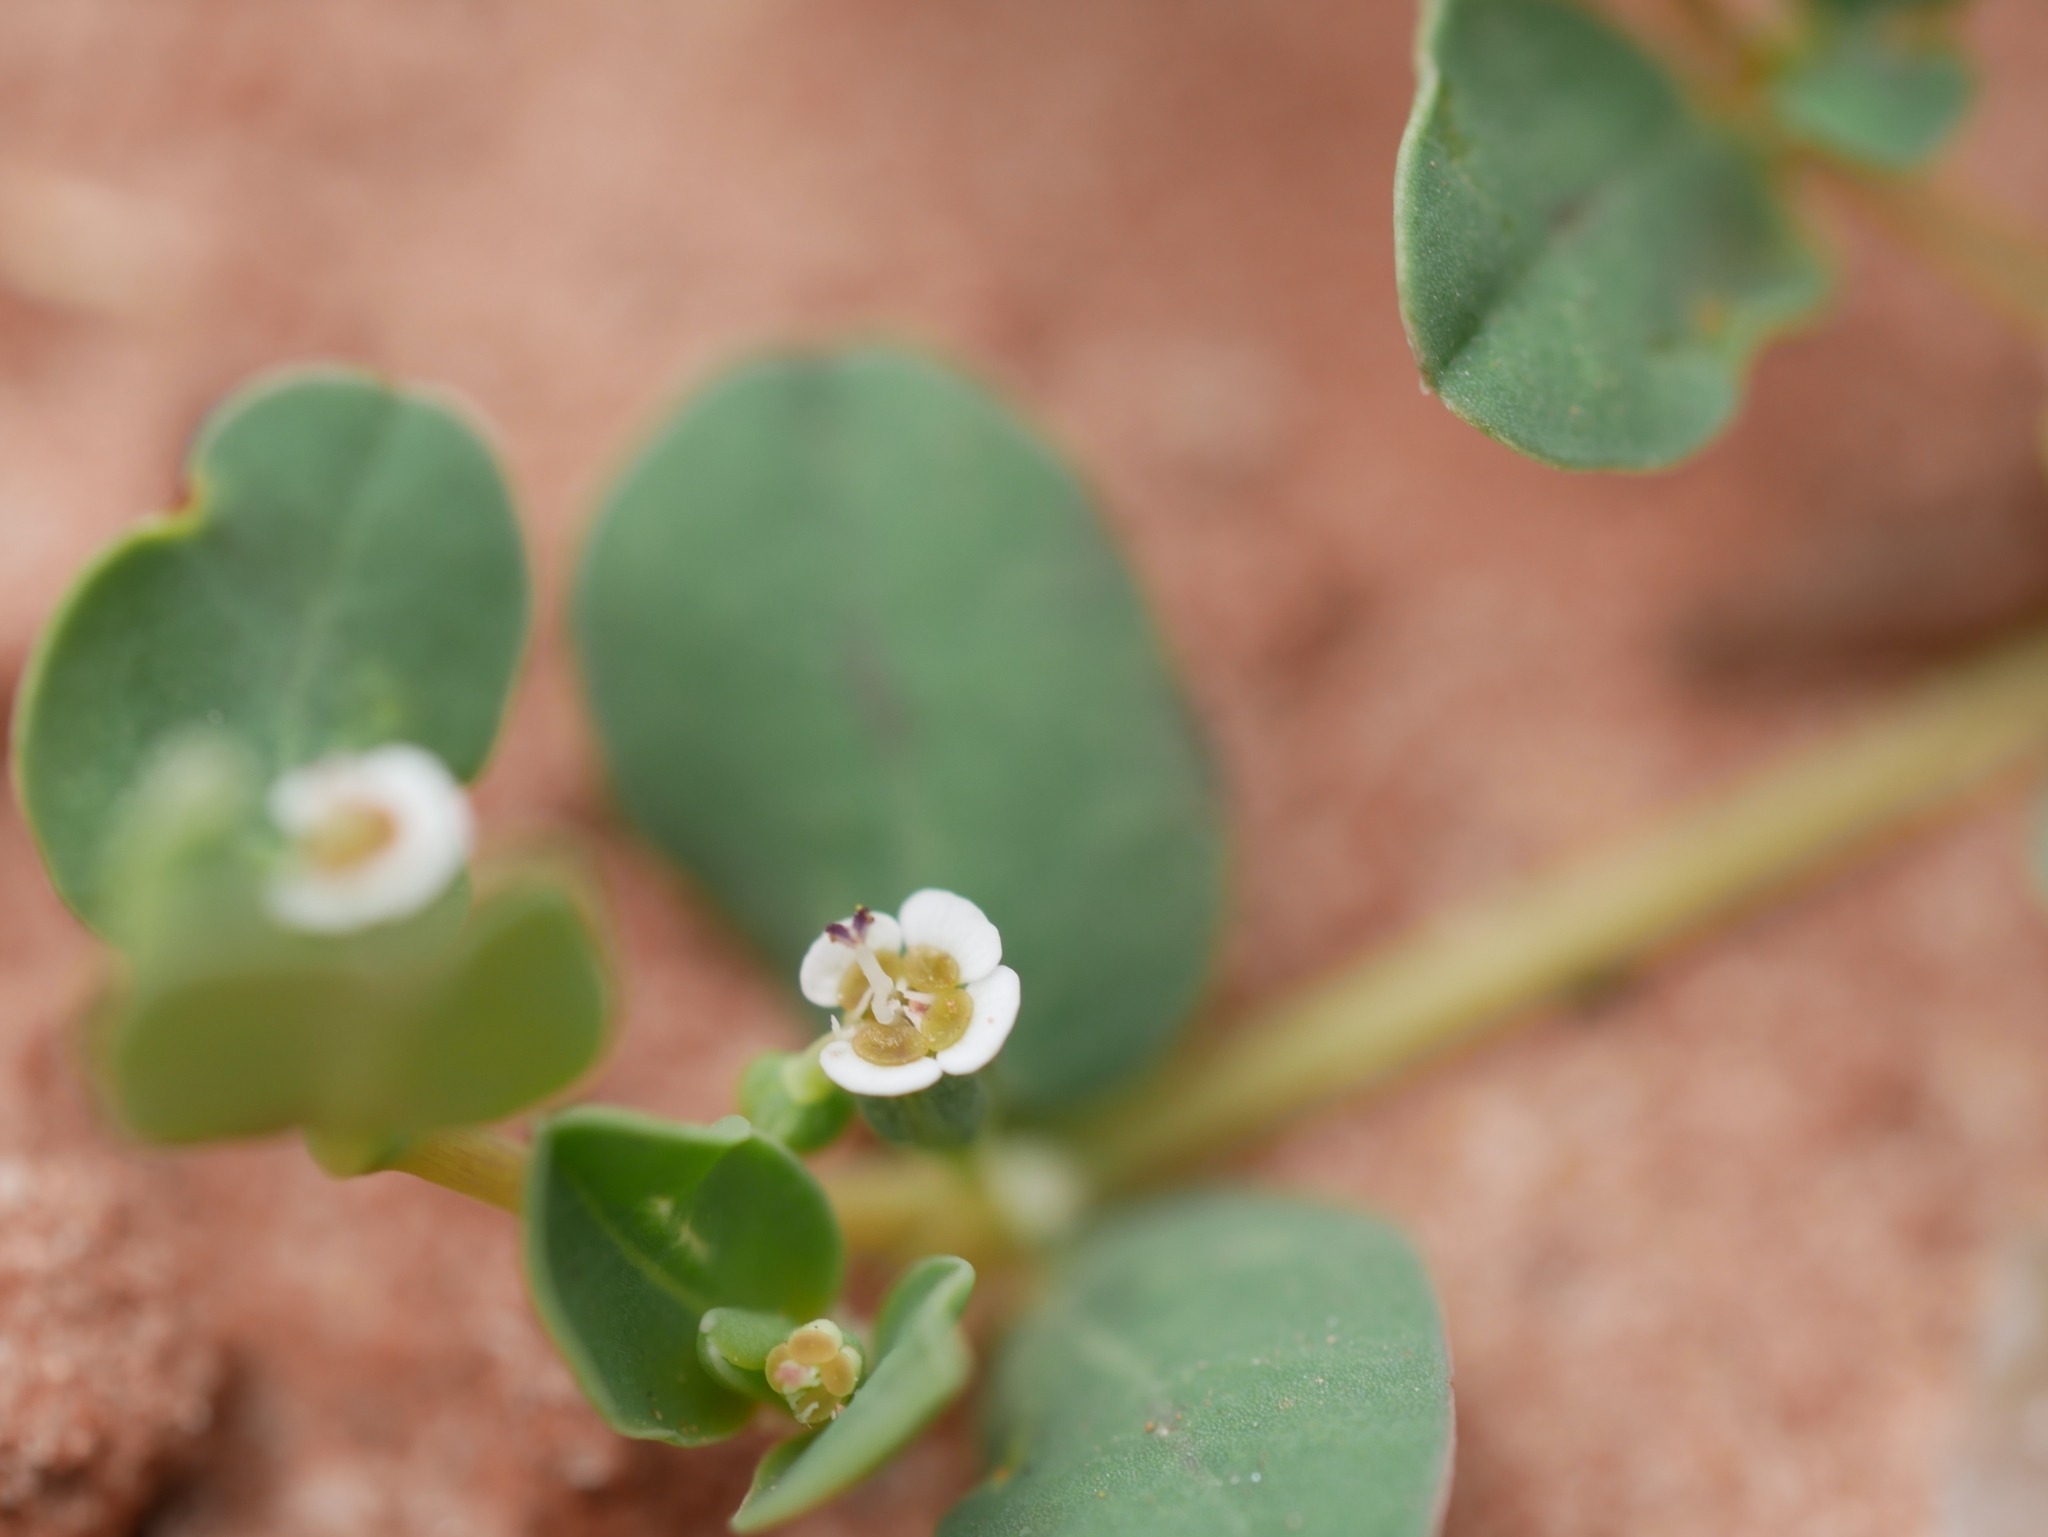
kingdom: Plantae
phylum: Tracheophyta
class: Magnoliopsida
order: Malpighiales
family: Euphorbiaceae
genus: Euphorbia
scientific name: Euphorbia albomarginata
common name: Whitemargin sandmat
